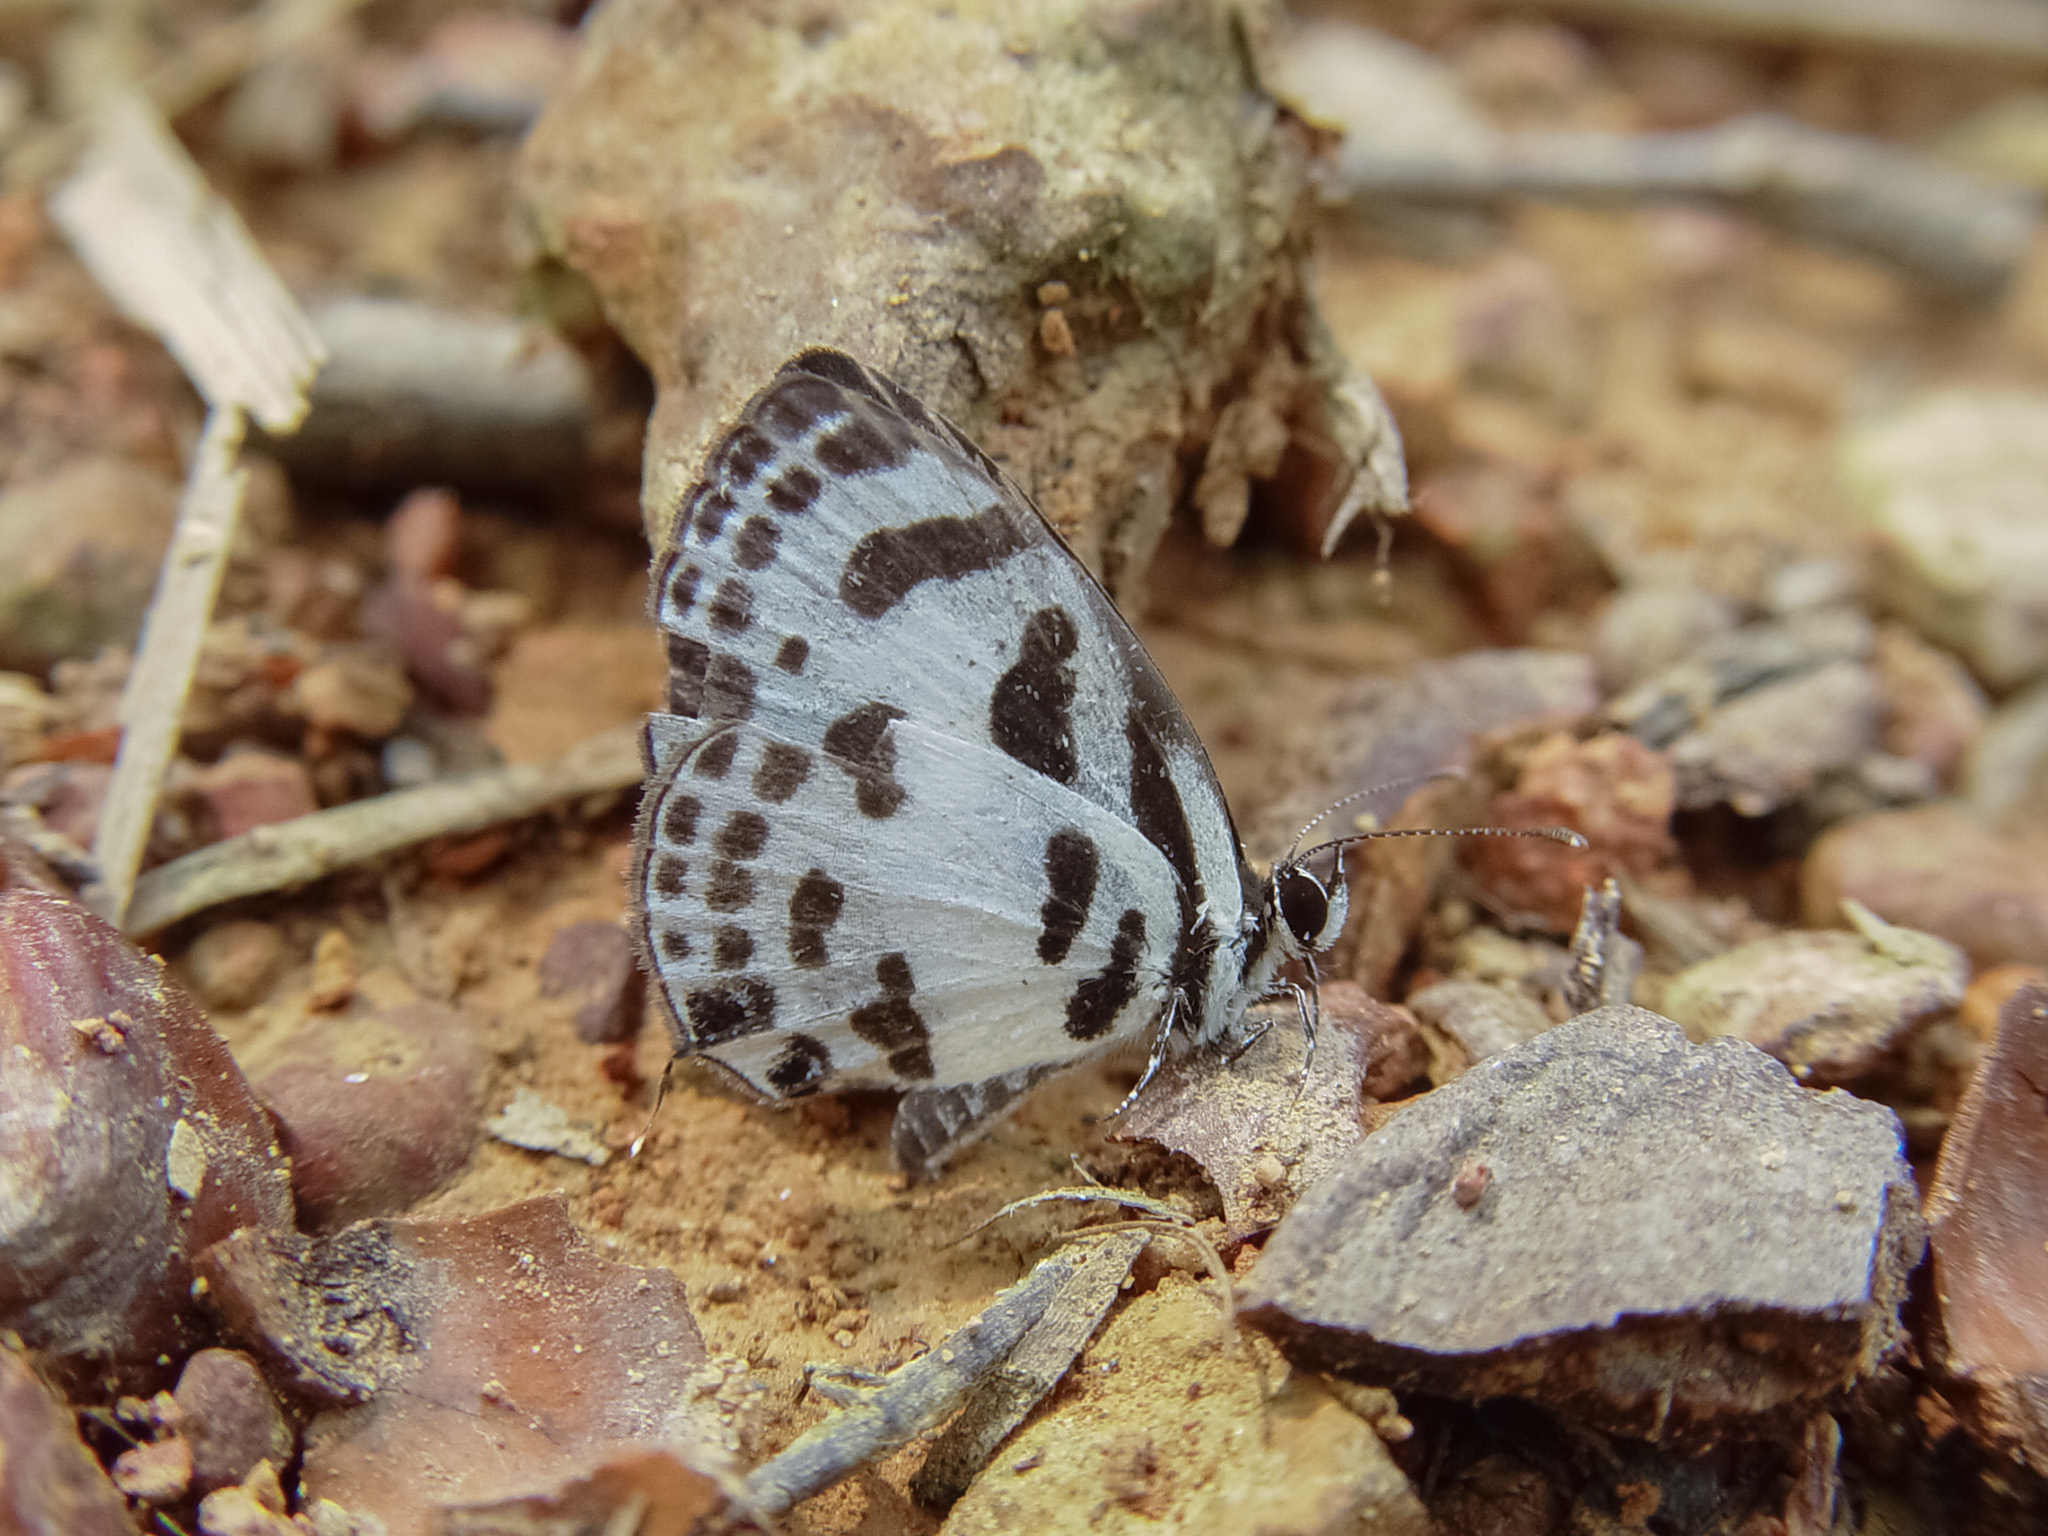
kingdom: Animalia
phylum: Arthropoda
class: Insecta
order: Lepidoptera
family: Lycaenidae
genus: Discolampa
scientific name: Discolampa ethion
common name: Banded blue pierrot
